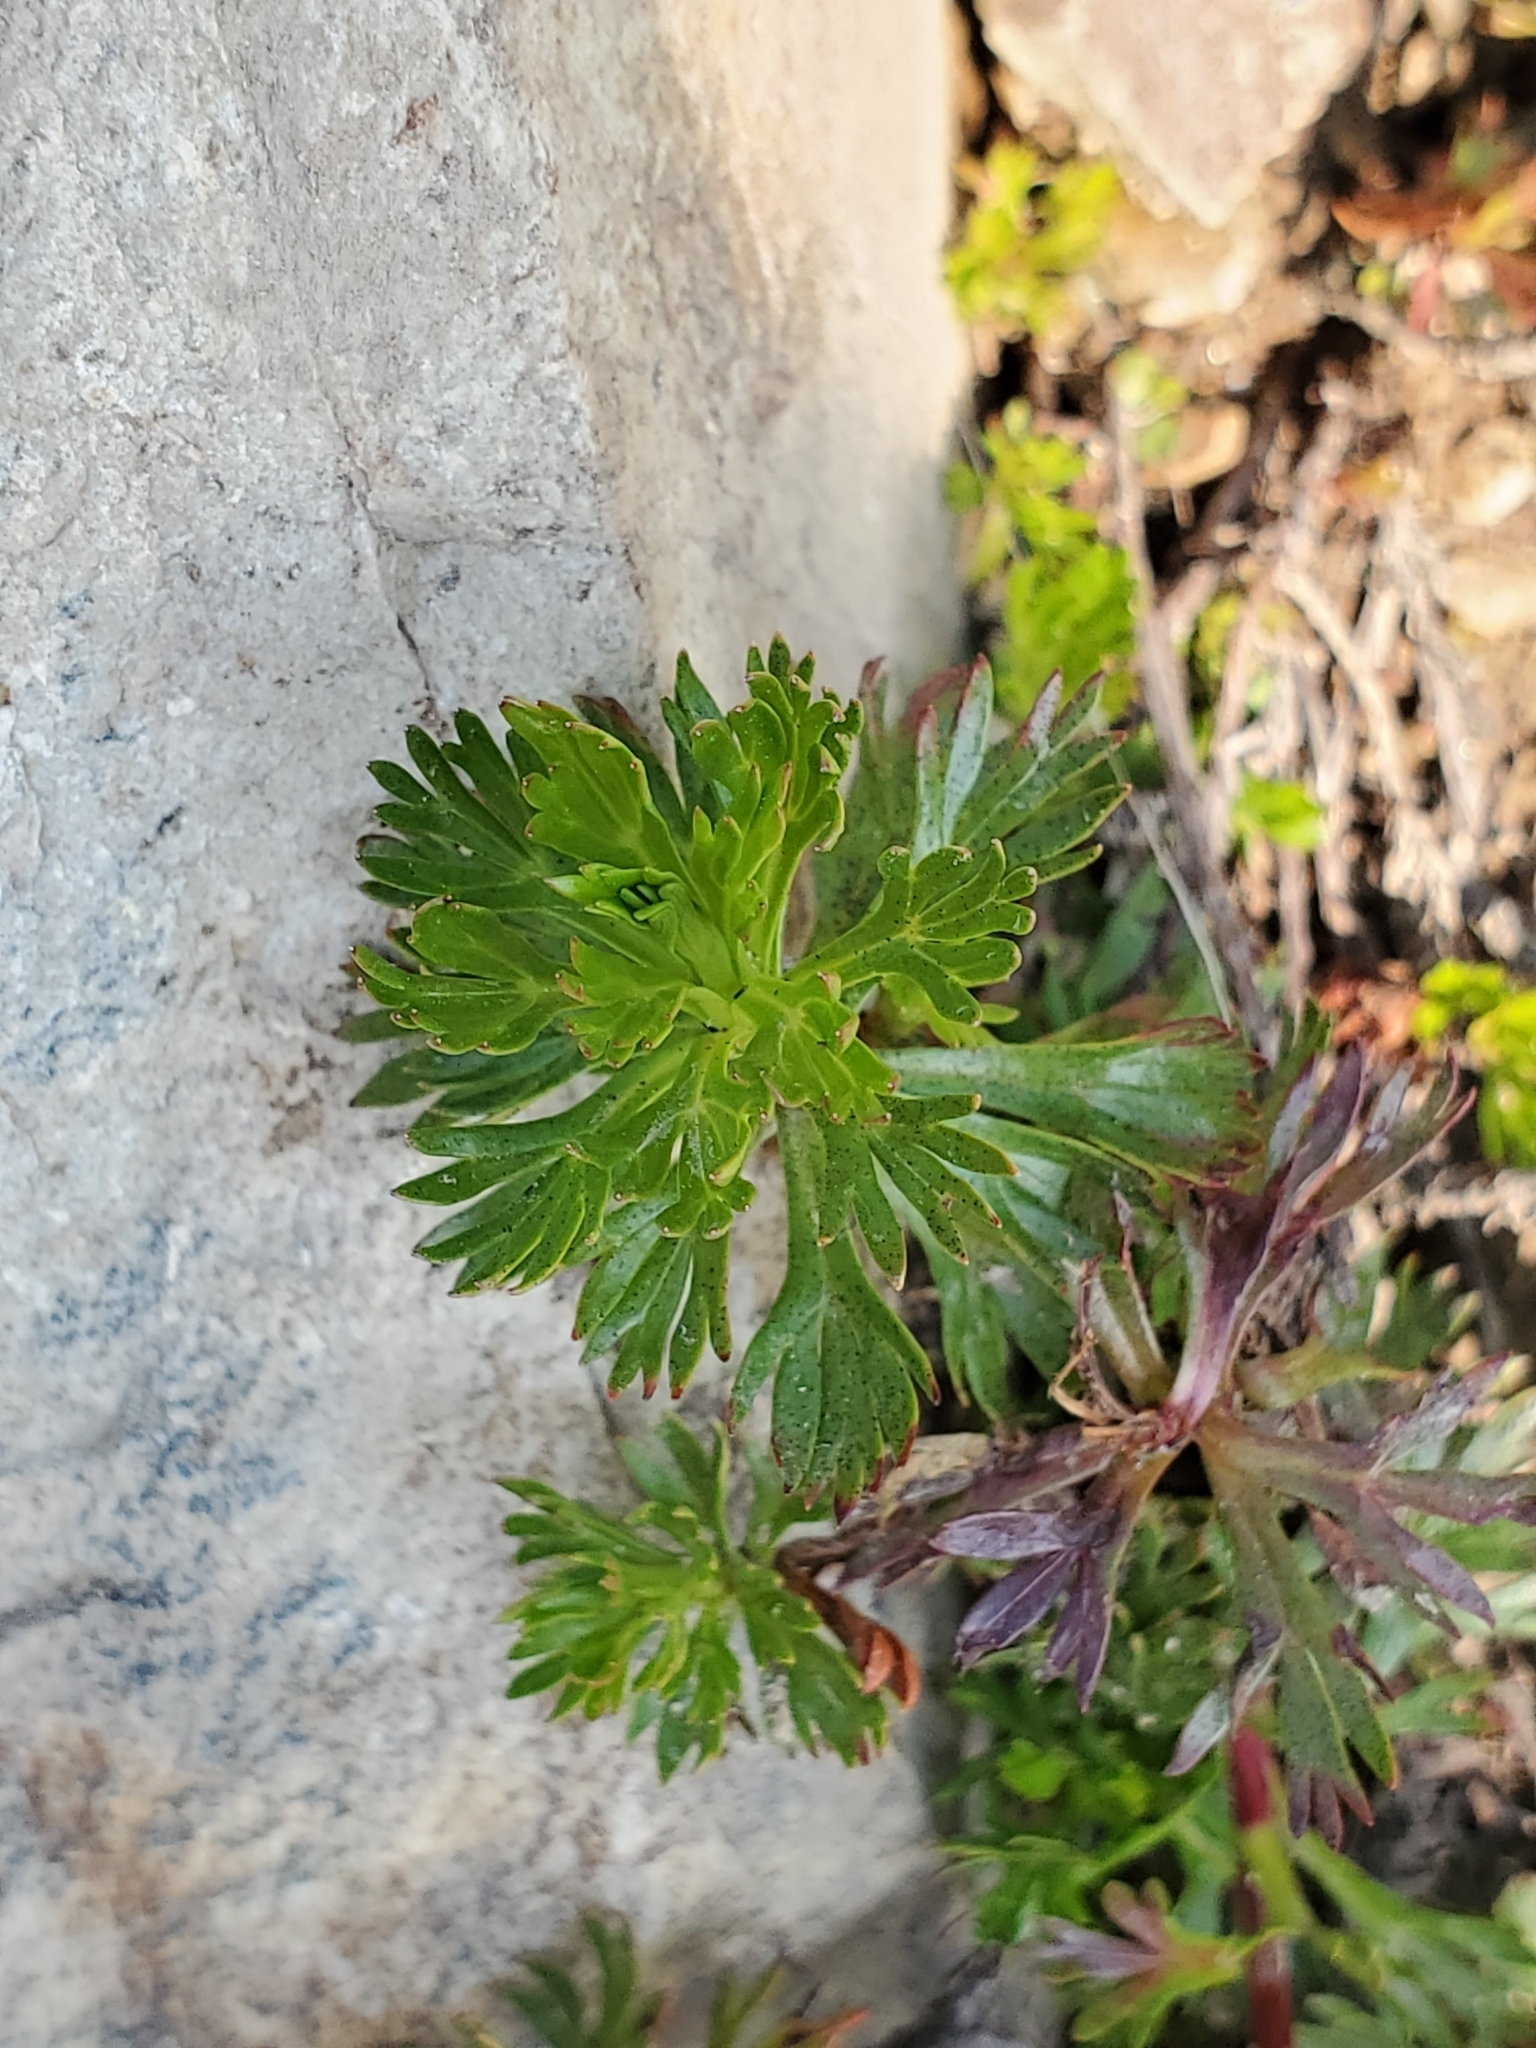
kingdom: Plantae
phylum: Tracheophyta
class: Magnoliopsida
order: Rosales
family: Rosaceae
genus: Luetkea
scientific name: Luetkea pectinata
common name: Partridgefoot
